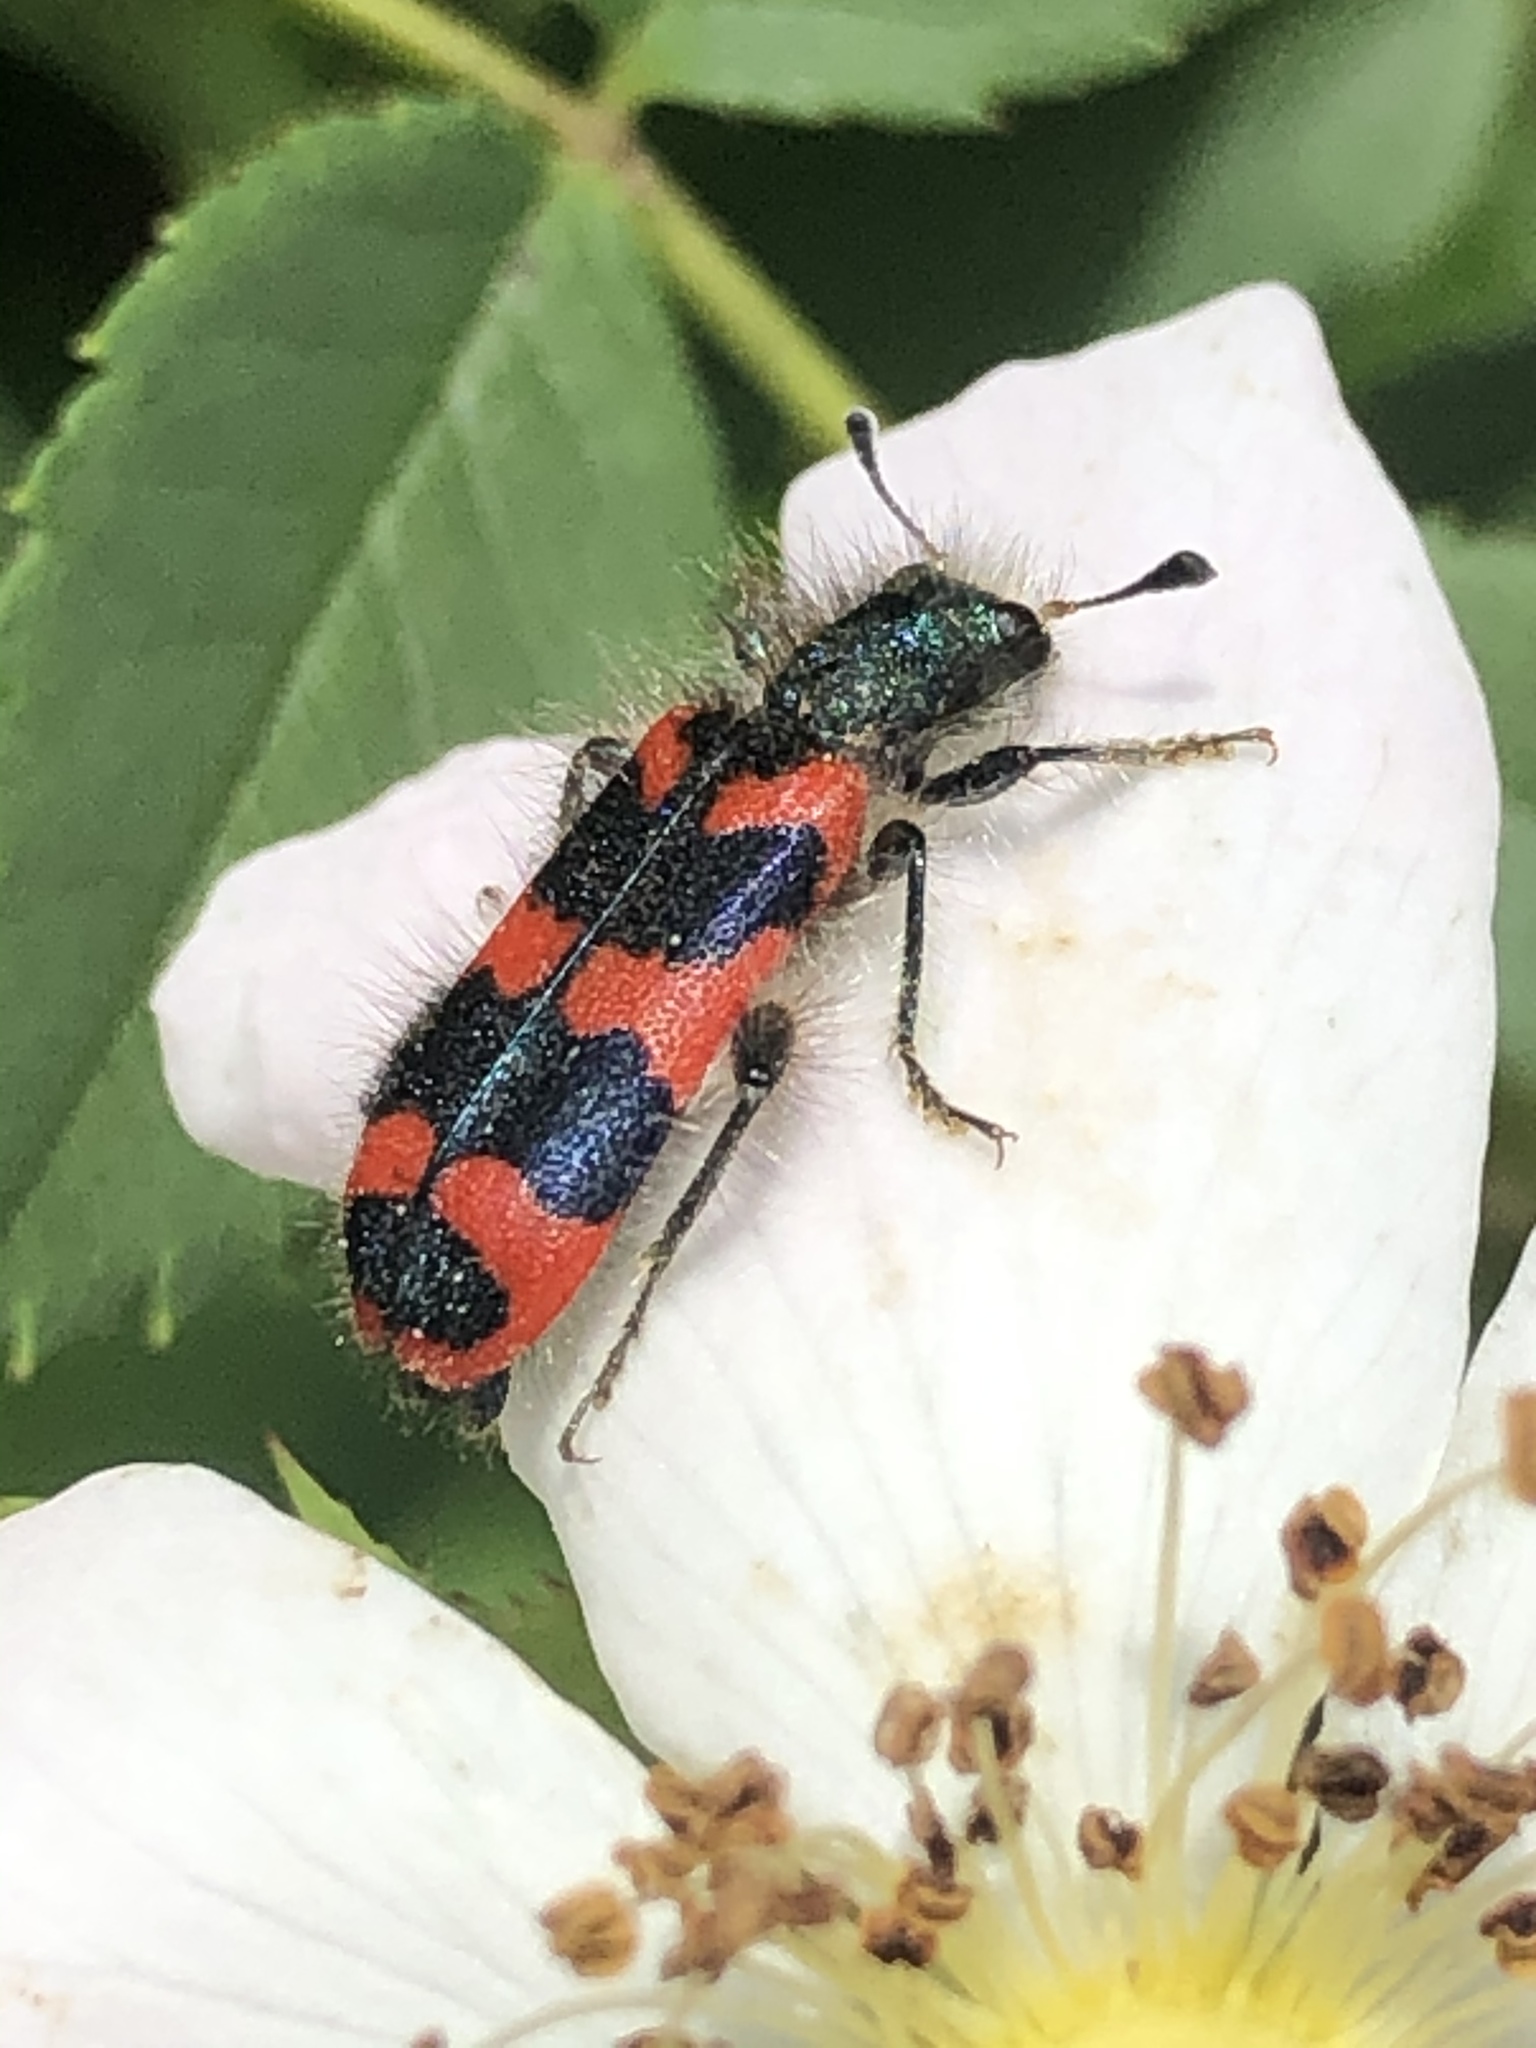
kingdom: Animalia
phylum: Arthropoda
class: Insecta
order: Coleoptera
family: Cleridae
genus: Trichodes
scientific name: Trichodes alvearius
